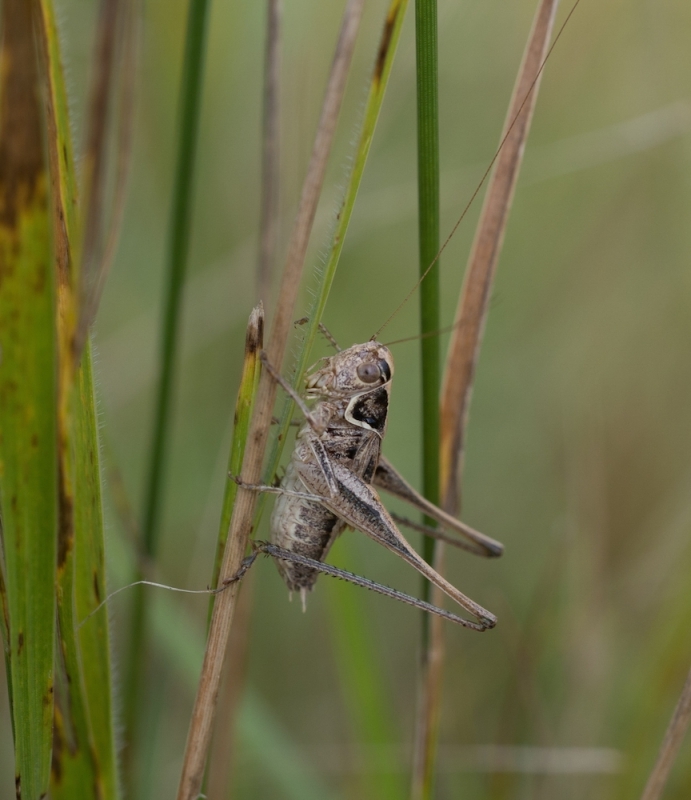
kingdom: Animalia
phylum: Arthropoda
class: Insecta
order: Orthoptera
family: Tettigoniidae
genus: Tessellana
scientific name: Tessellana veyseli
